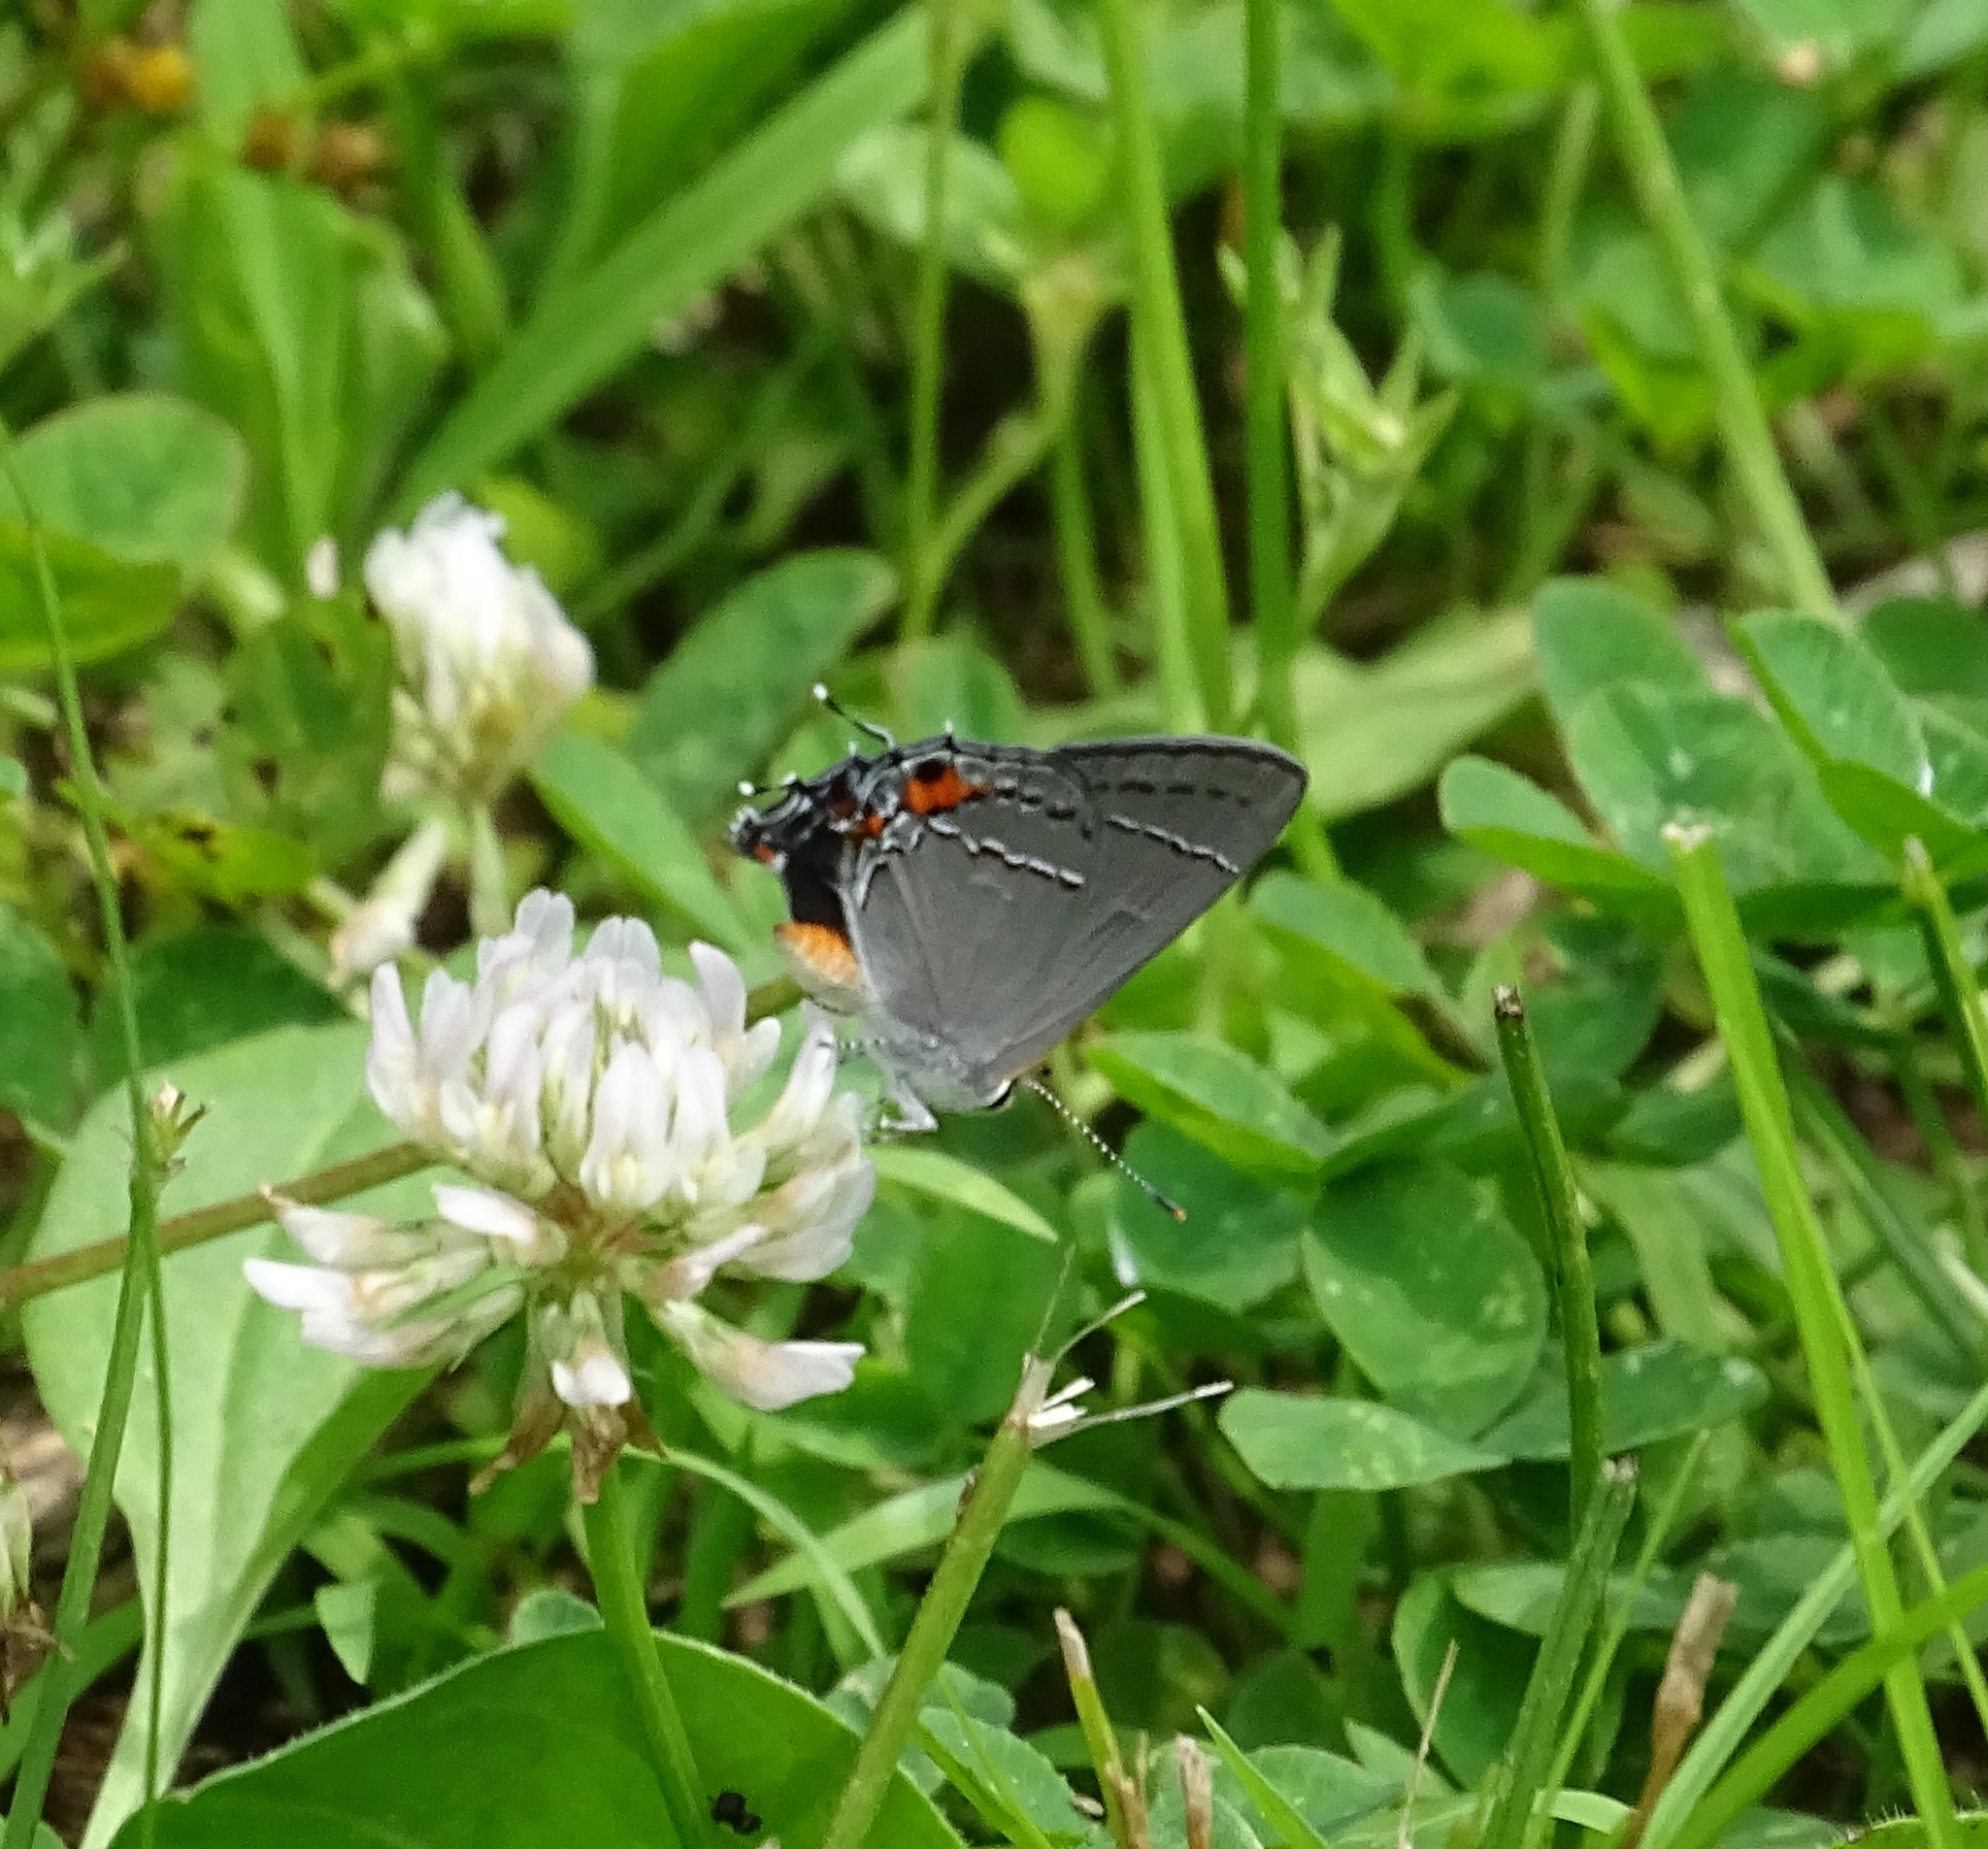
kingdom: Animalia
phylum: Arthropoda
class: Insecta
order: Lepidoptera
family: Lycaenidae
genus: Strymon
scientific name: Strymon melinus
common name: Gray hairstreak
